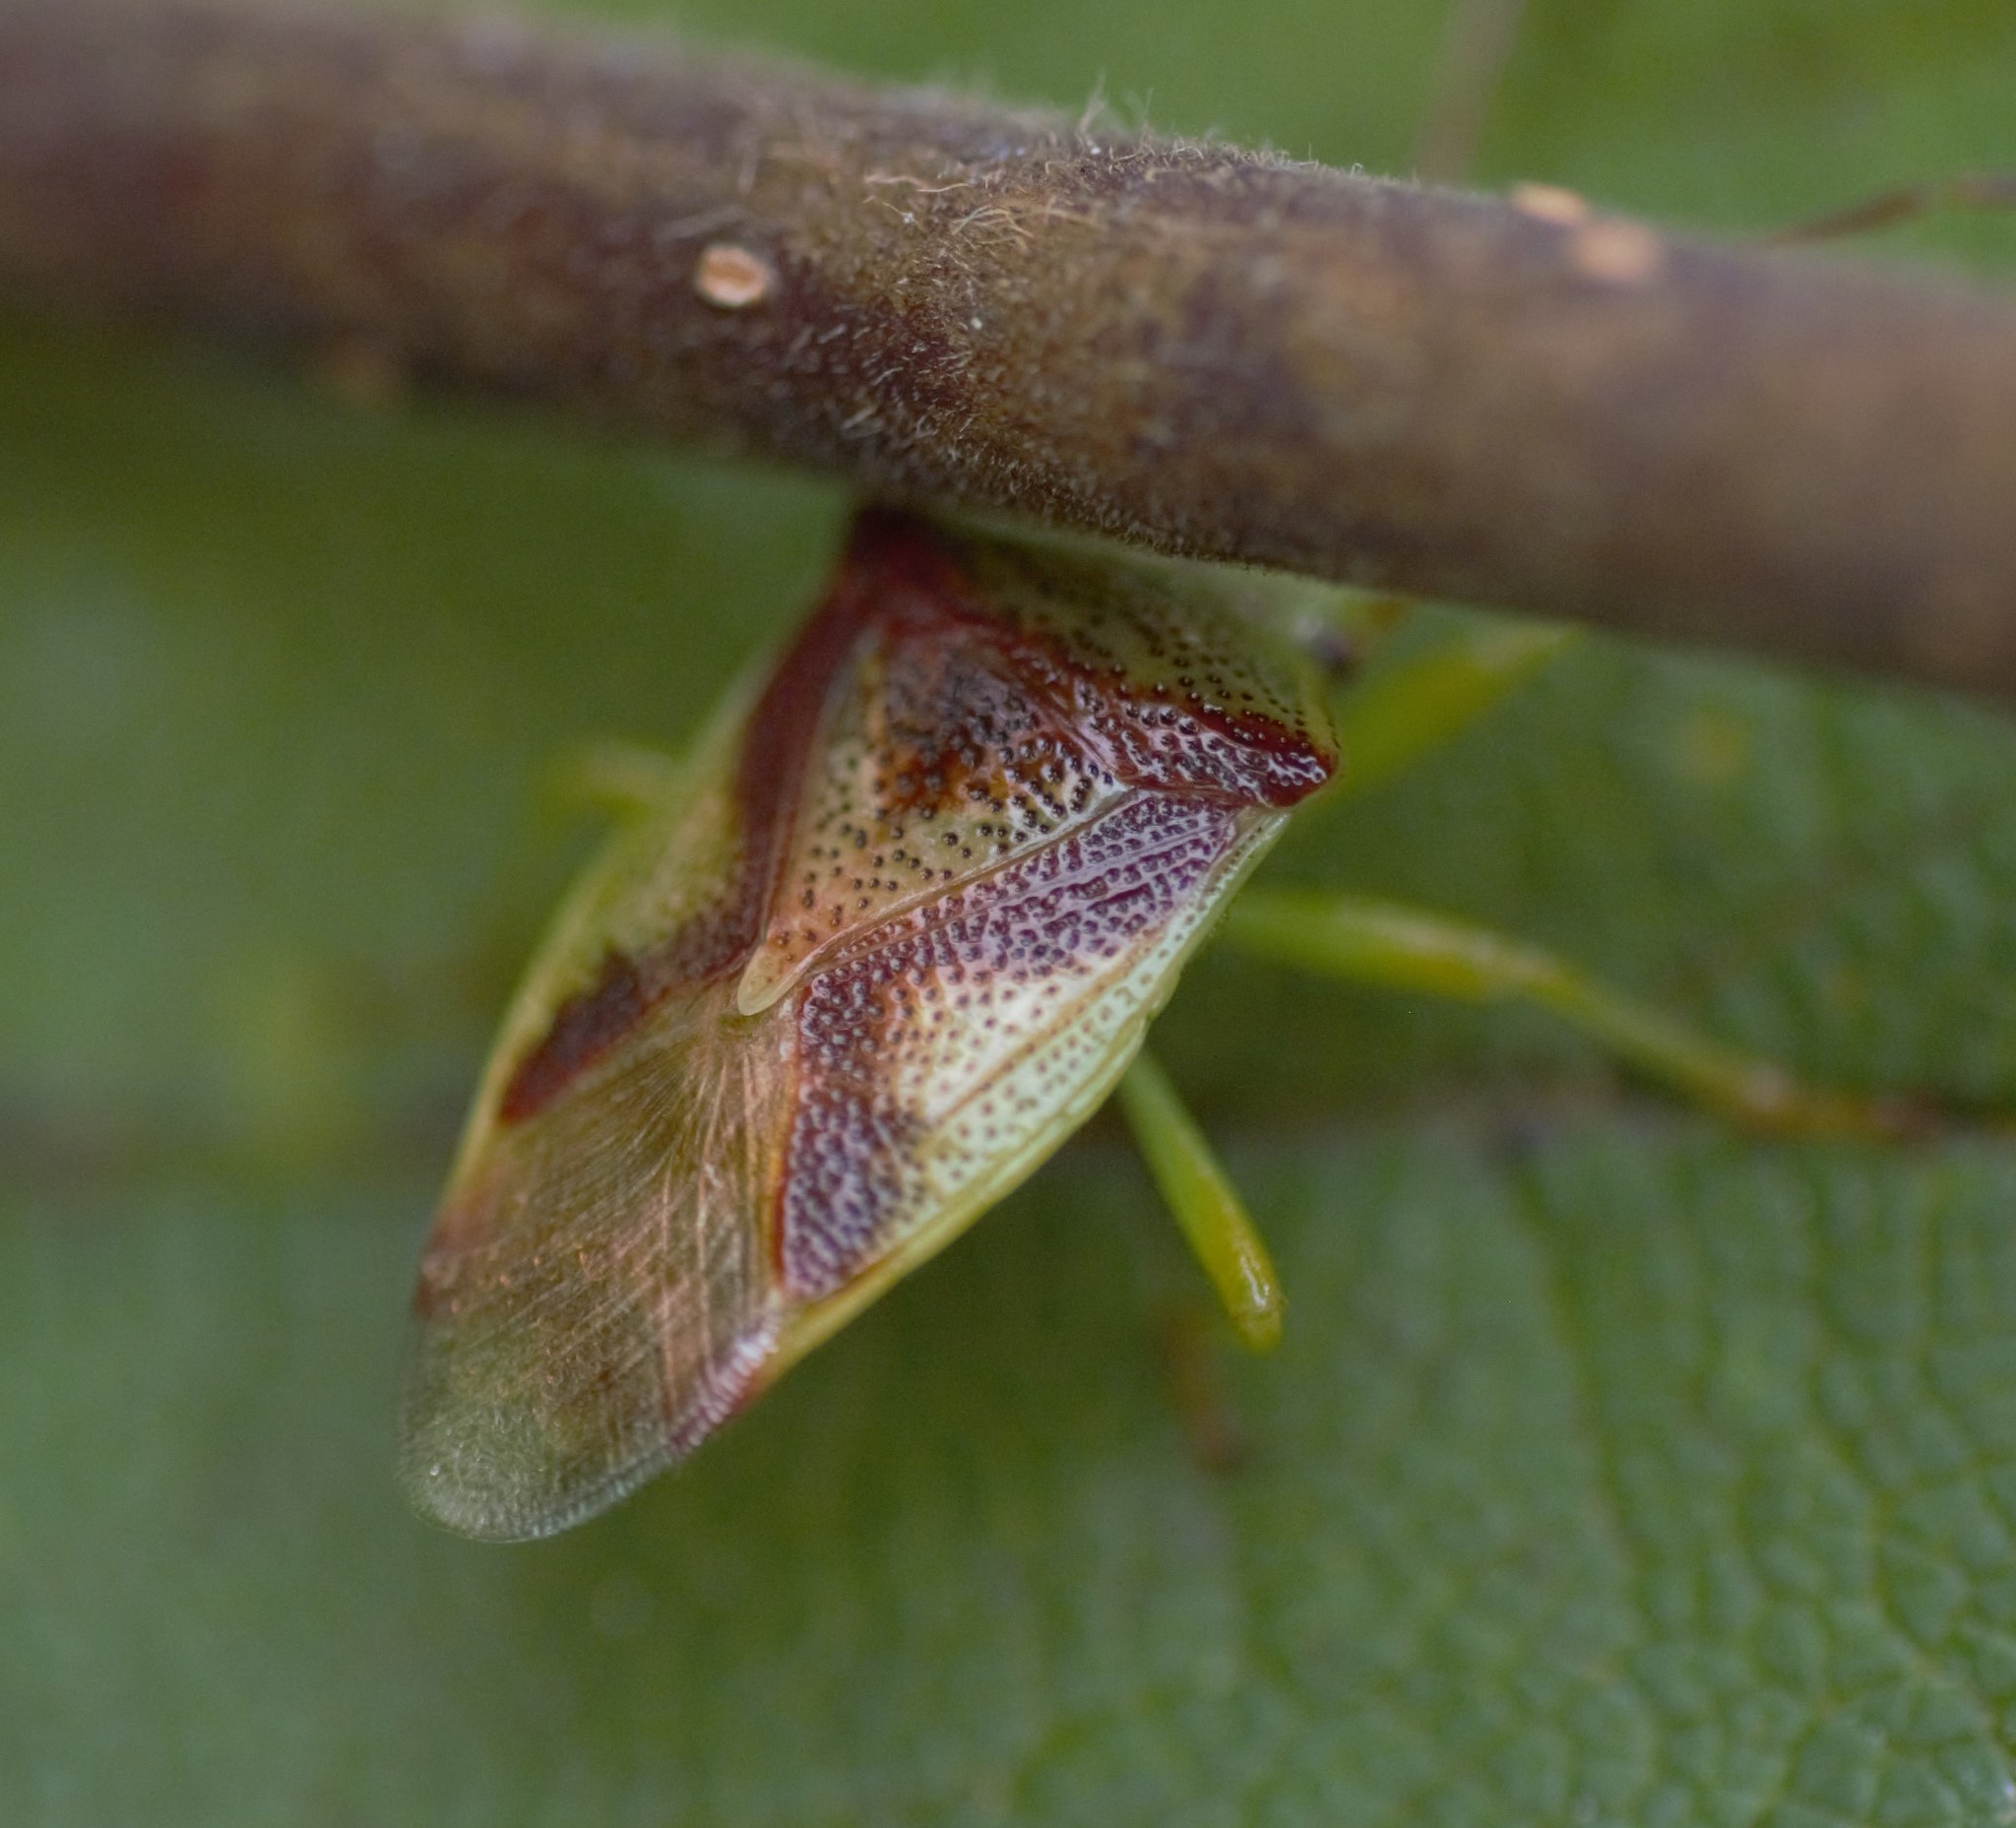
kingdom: Animalia
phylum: Arthropoda
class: Insecta
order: Hemiptera
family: Acanthosomatidae
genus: Elasmostethus
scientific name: Elasmostethus cruciatus
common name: Red-cross shield bug
